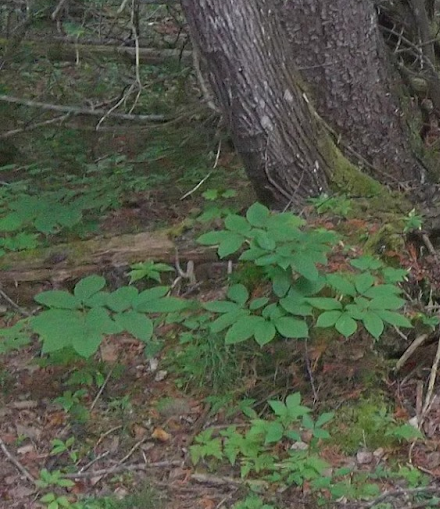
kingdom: Plantae
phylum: Tracheophyta
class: Magnoliopsida
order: Apiales
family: Araliaceae
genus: Aralia
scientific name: Aralia nudicaulis
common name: Wild sarsaparilla
